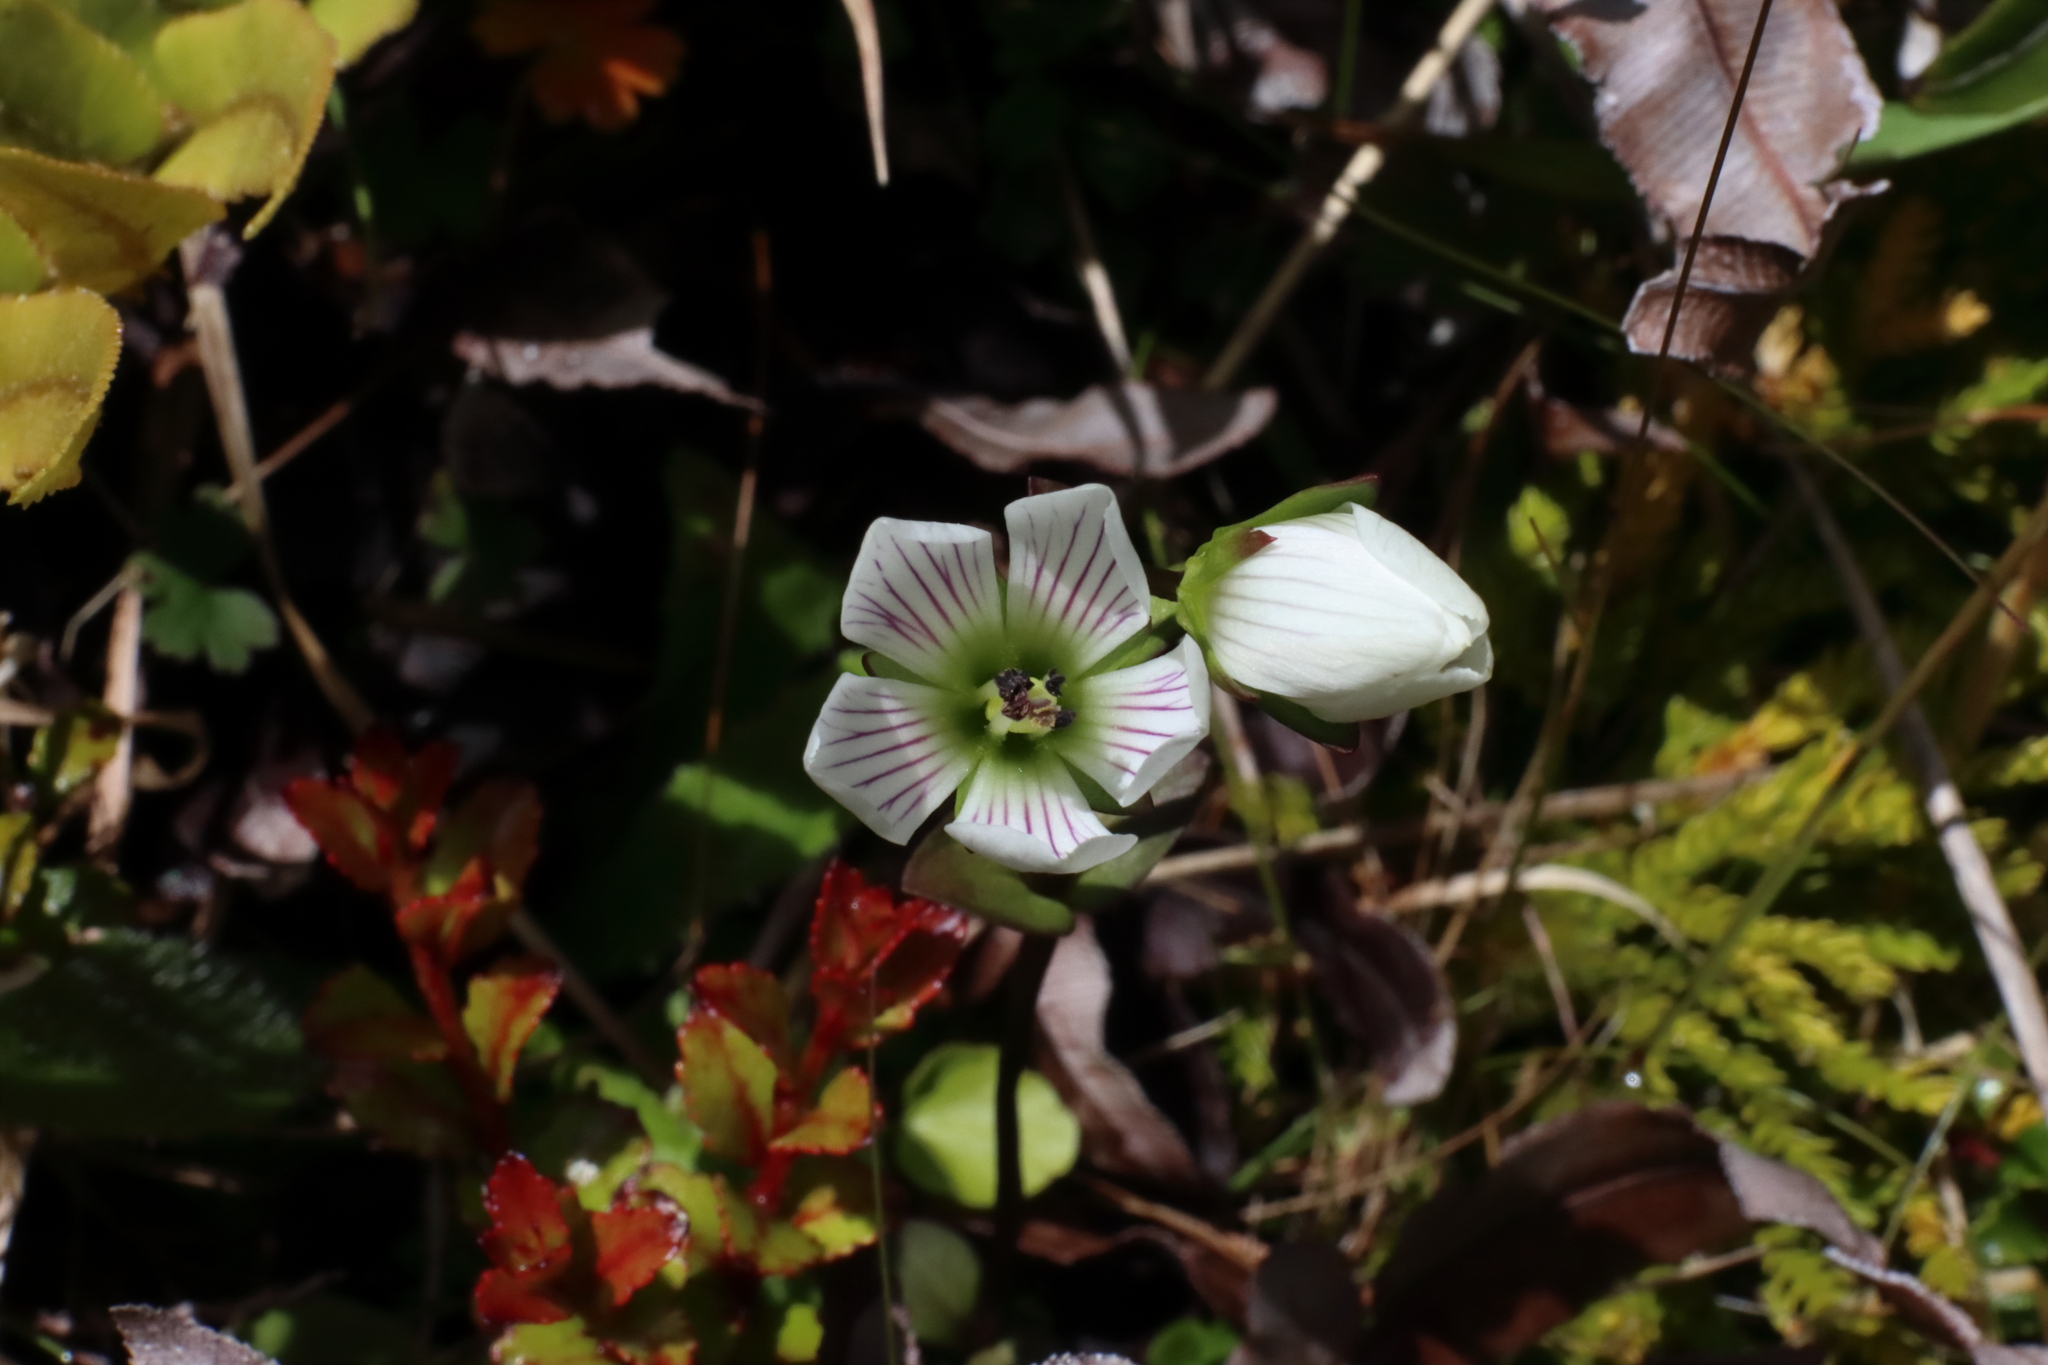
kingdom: Plantae
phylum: Tracheophyta
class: Magnoliopsida
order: Gentianales
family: Gentianaceae
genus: Gentianella
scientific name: Gentianella montana
